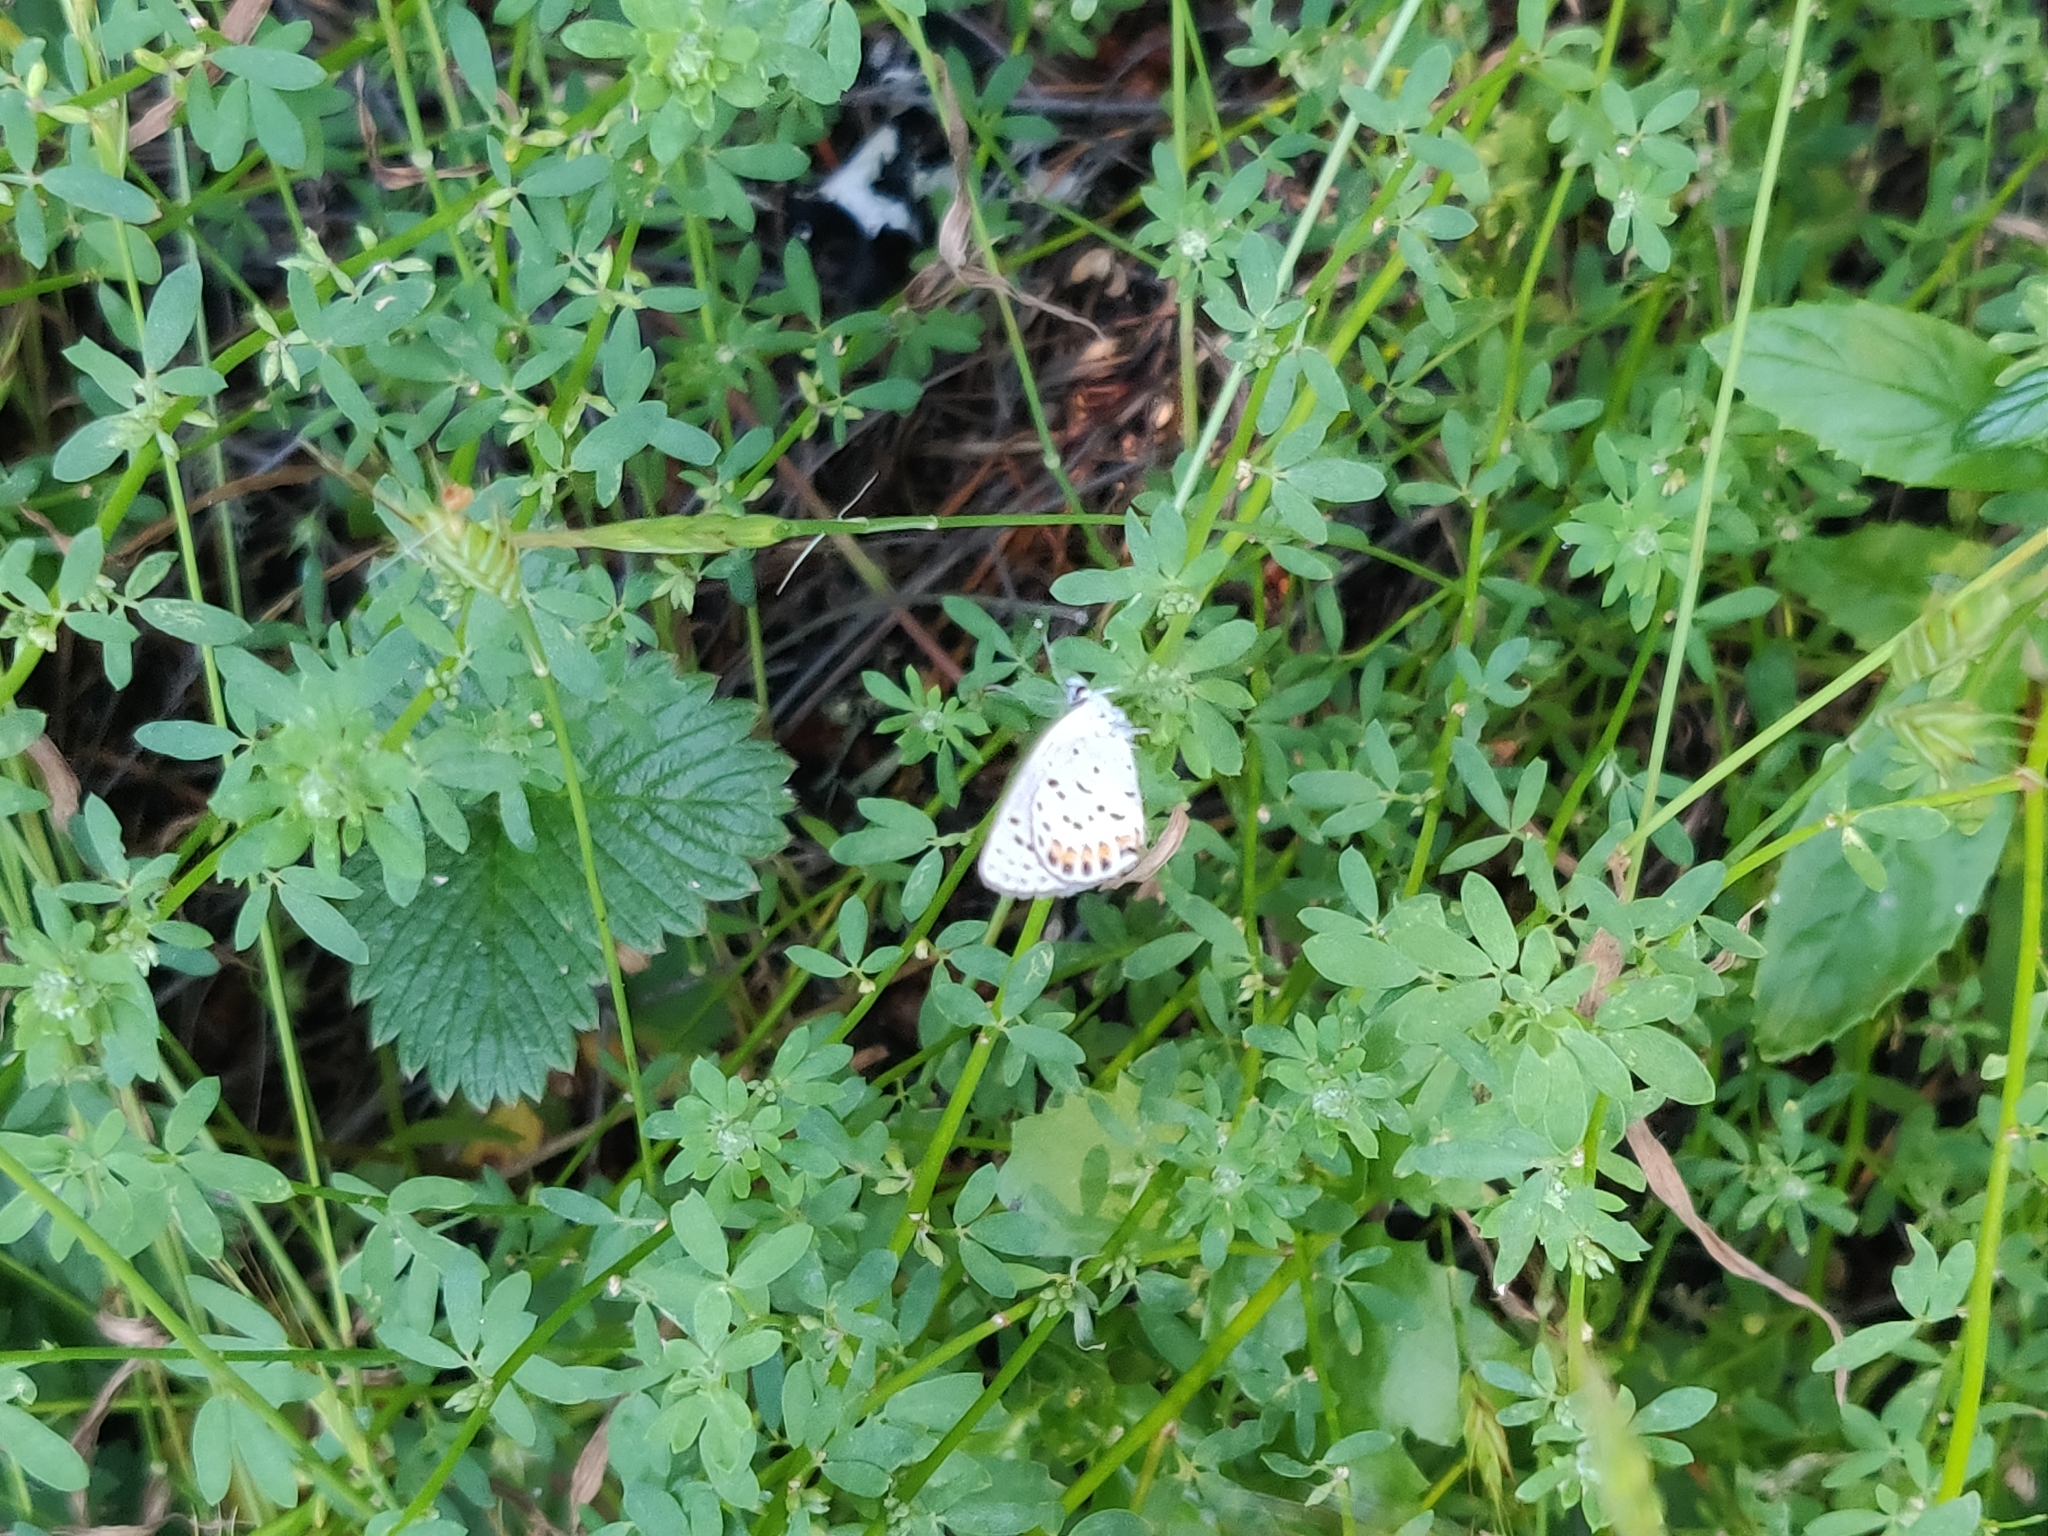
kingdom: Animalia
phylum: Arthropoda
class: Insecta
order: Lepidoptera
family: Lycaenidae
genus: Icaricia
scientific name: Icaricia acmon
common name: Acmon blue
